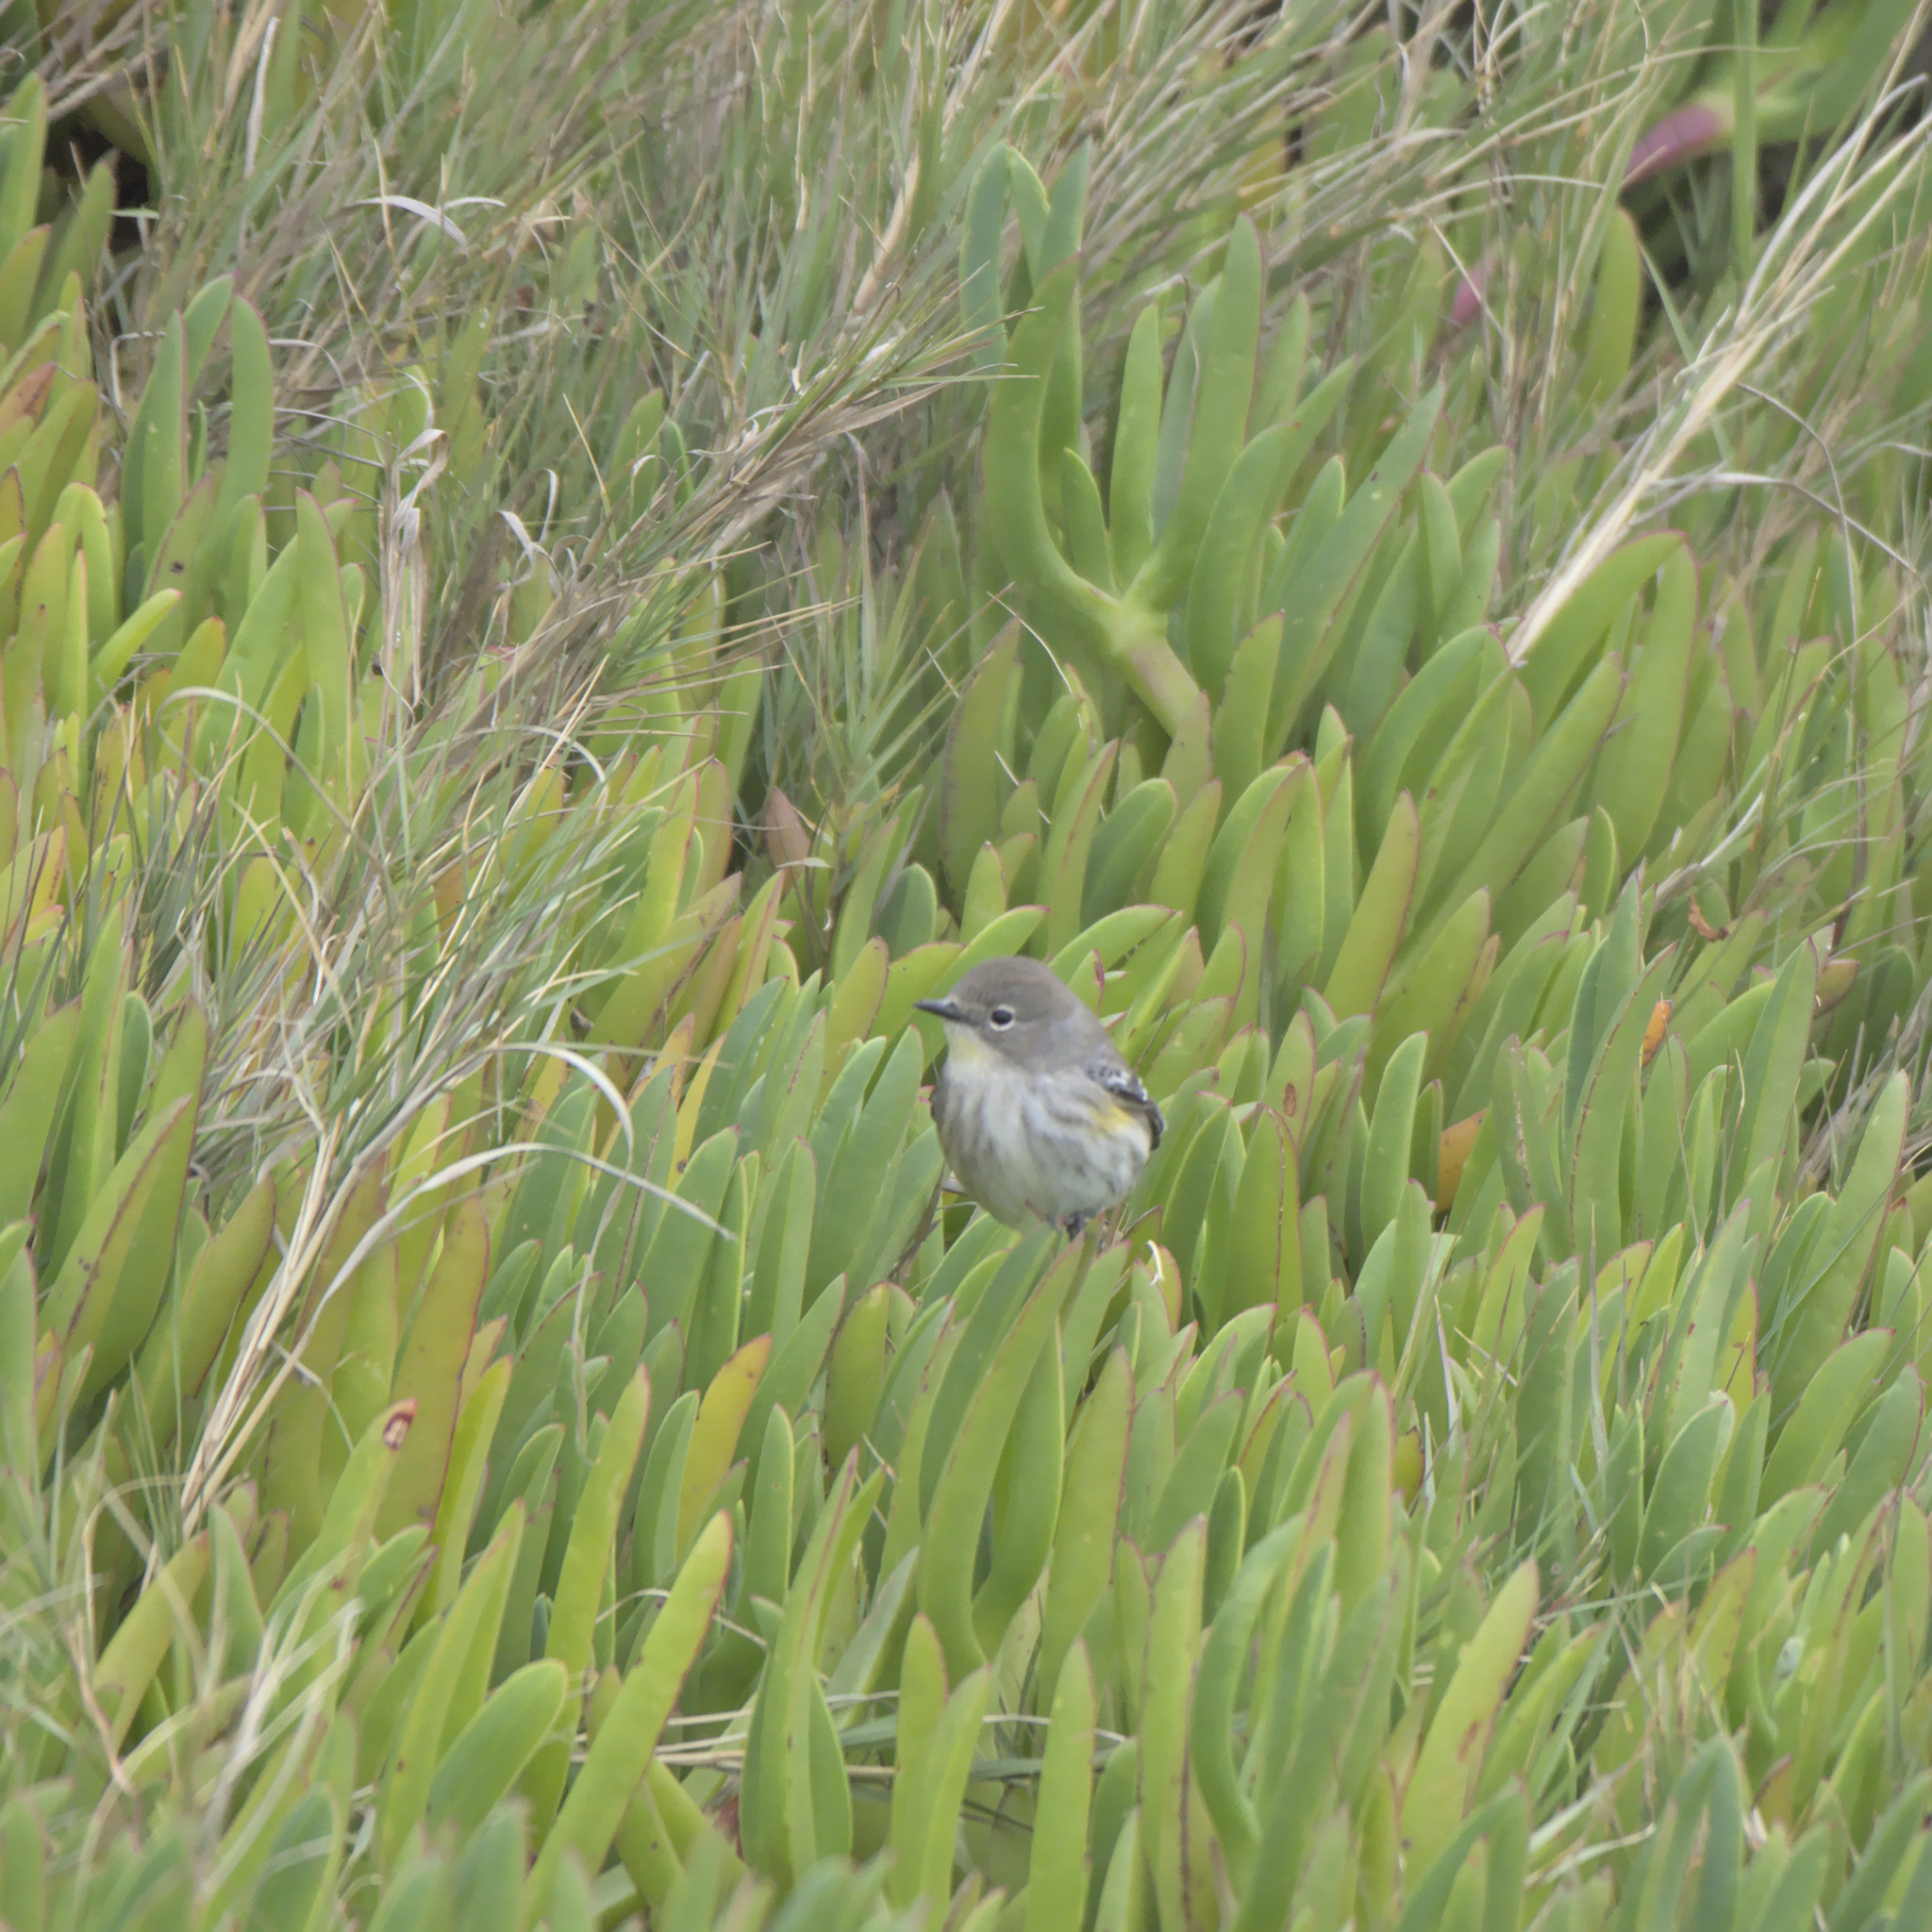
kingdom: Animalia
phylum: Chordata
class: Aves
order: Passeriformes
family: Parulidae
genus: Setophaga
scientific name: Setophaga coronata
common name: Myrtle warbler
